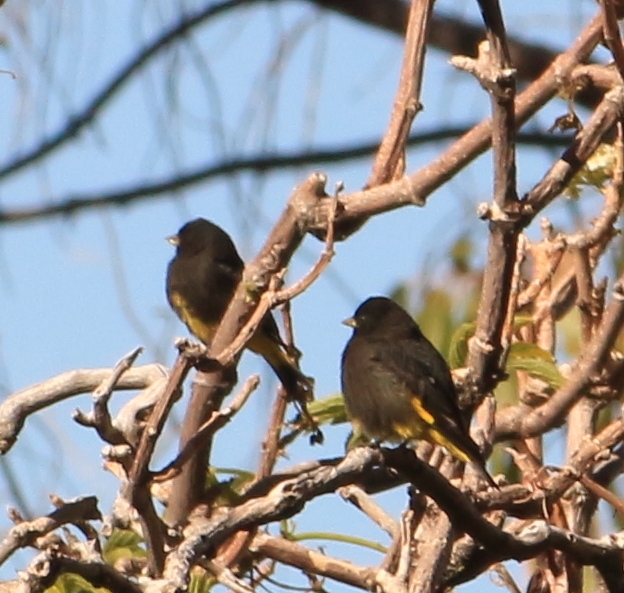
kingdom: Animalia
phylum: Chordata
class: Aves
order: Passeriformes
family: Fringillidae
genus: Spinus
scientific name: Spinus atratus
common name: Black siskin
